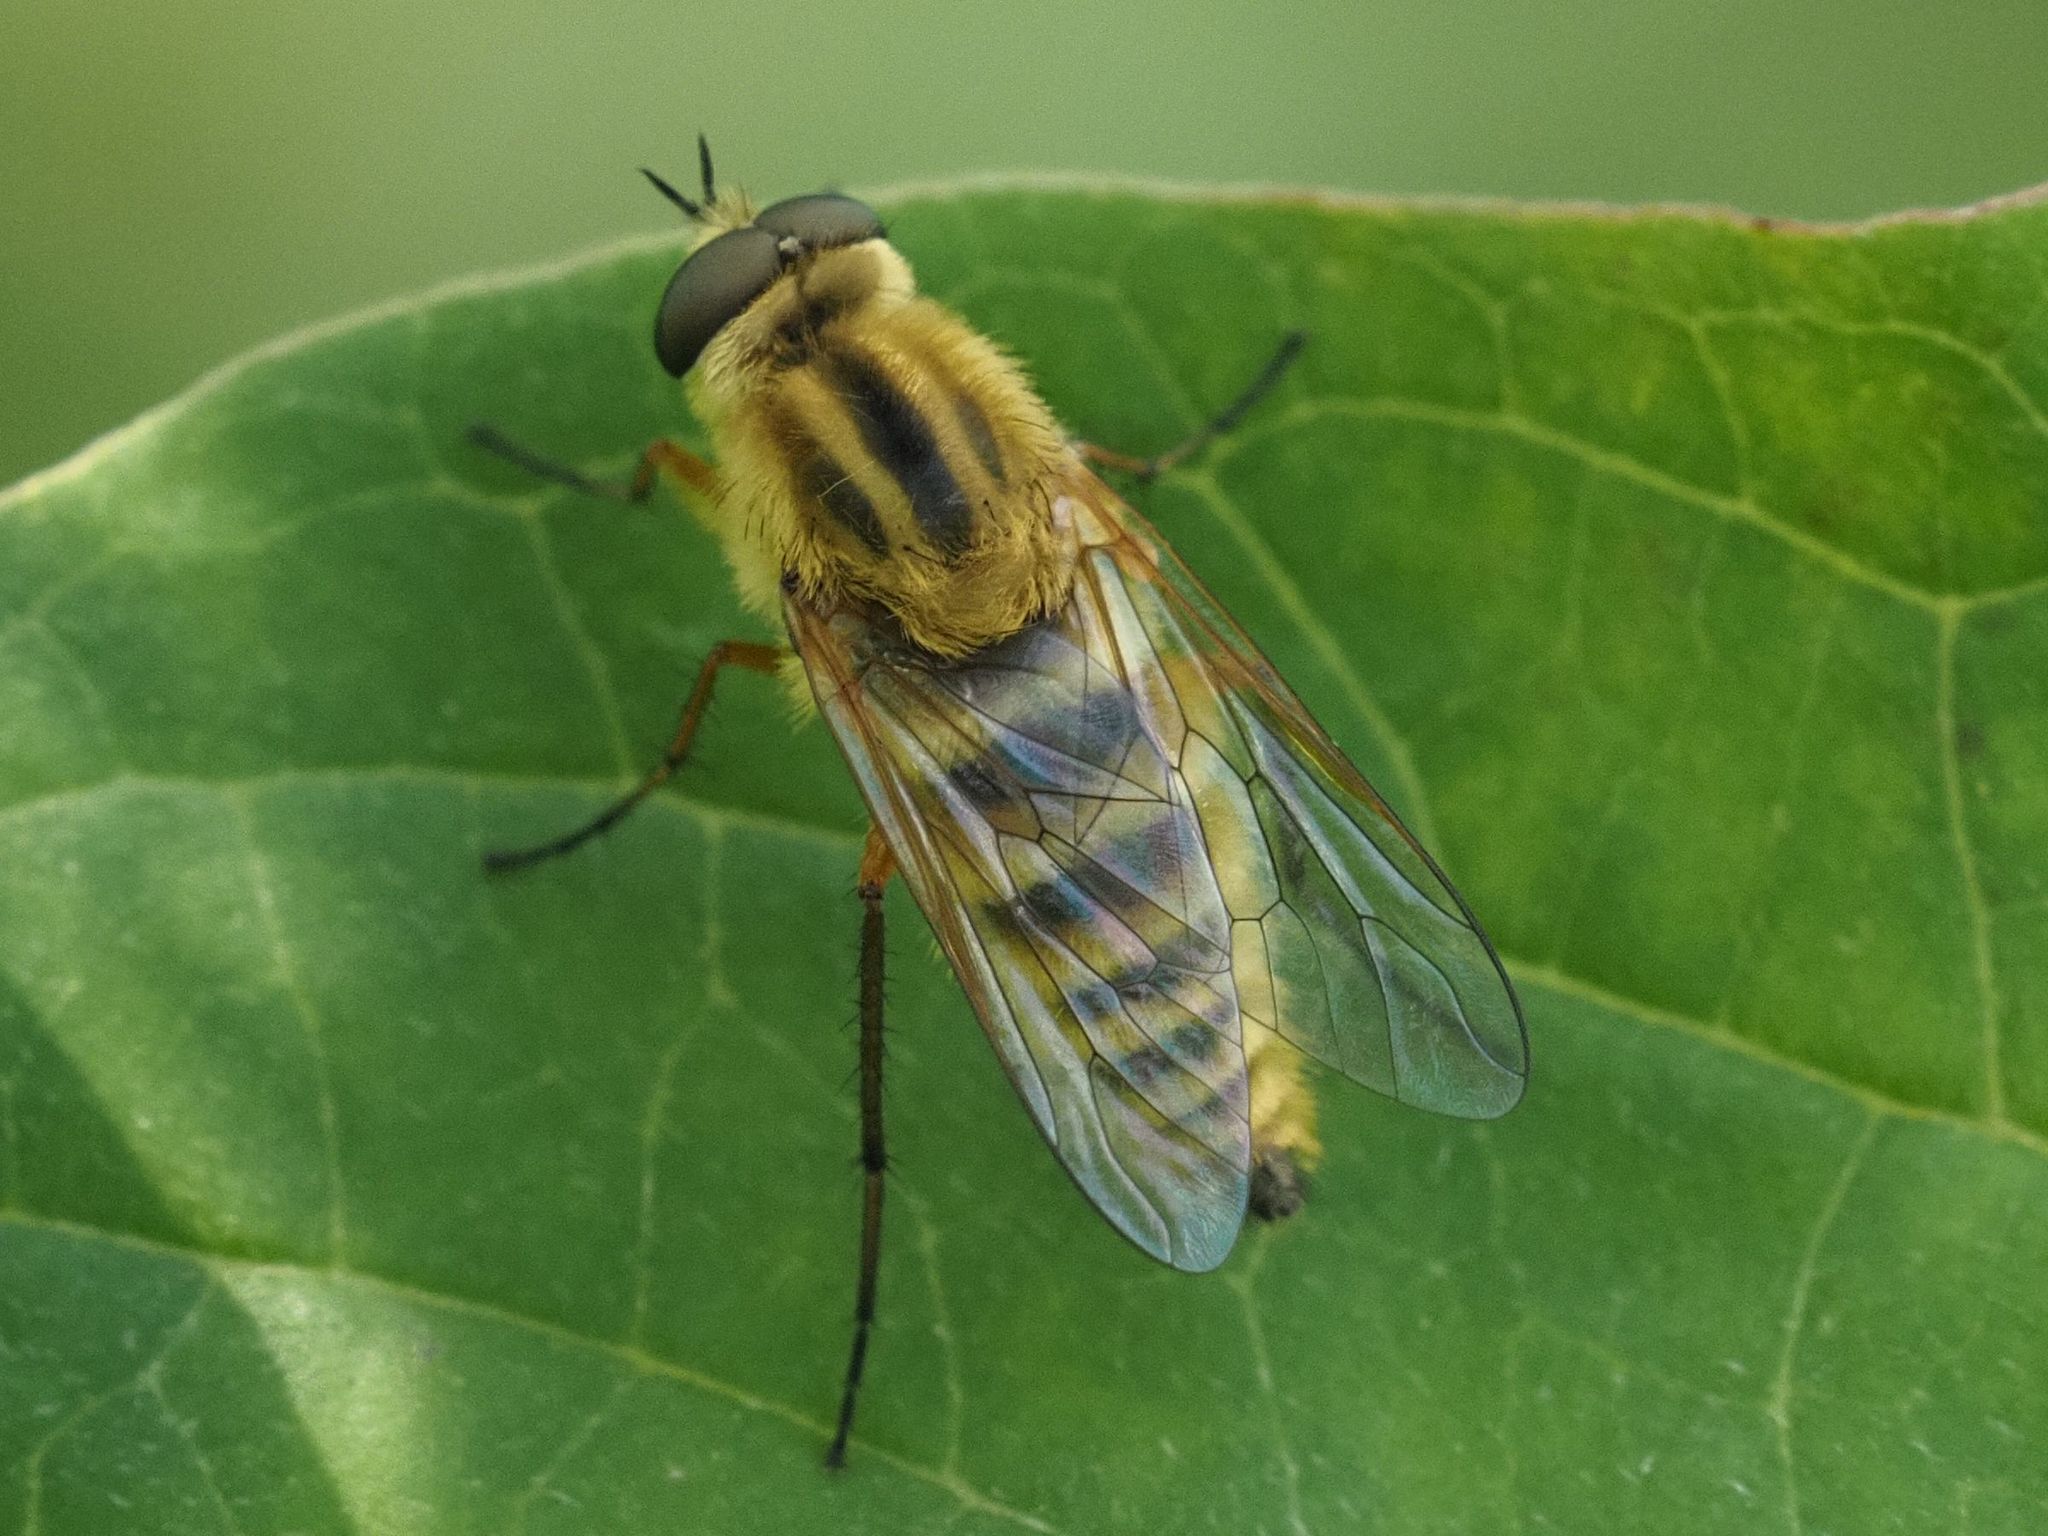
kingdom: Animalia
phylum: Arthropoda
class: Insecta
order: Diptera
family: Therevidae
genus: Thereva
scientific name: Thereva aurata
